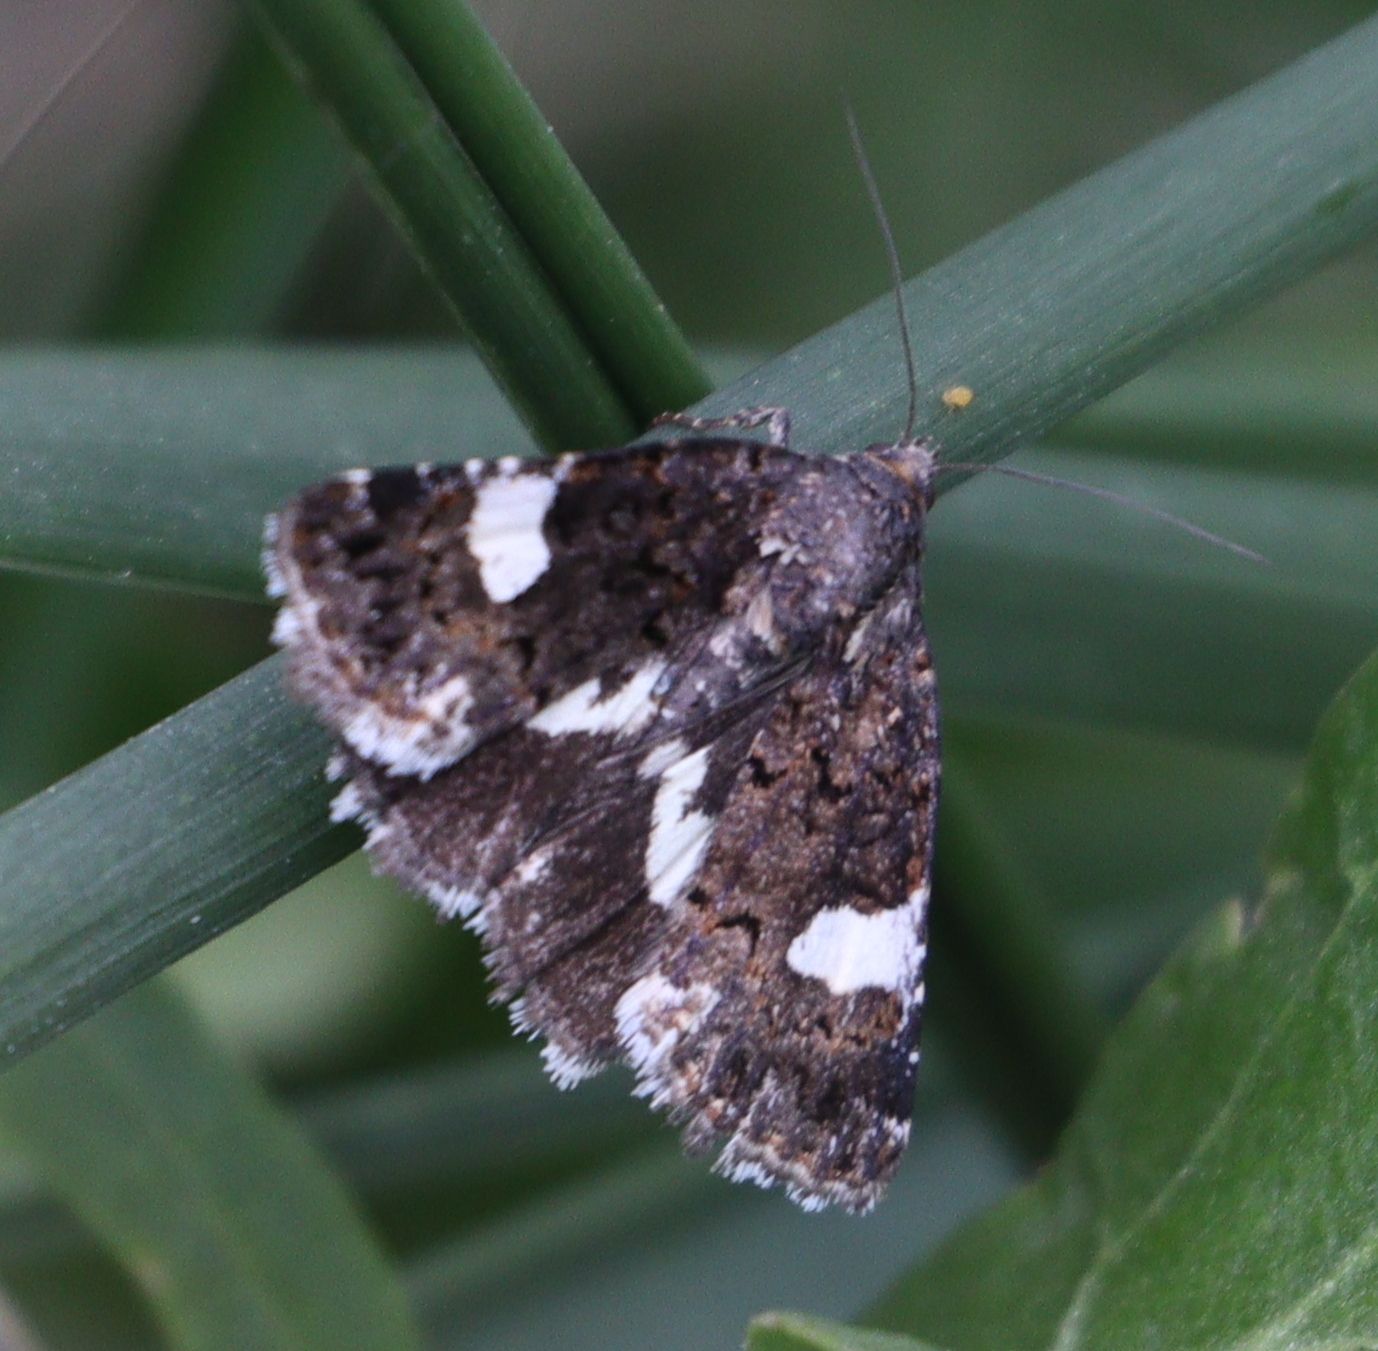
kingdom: Animalia
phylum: Arthropoda
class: Insecta
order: Lepidoptera
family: Erebidae
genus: Tyta
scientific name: Tyta luctuosa
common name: Four-spotted
